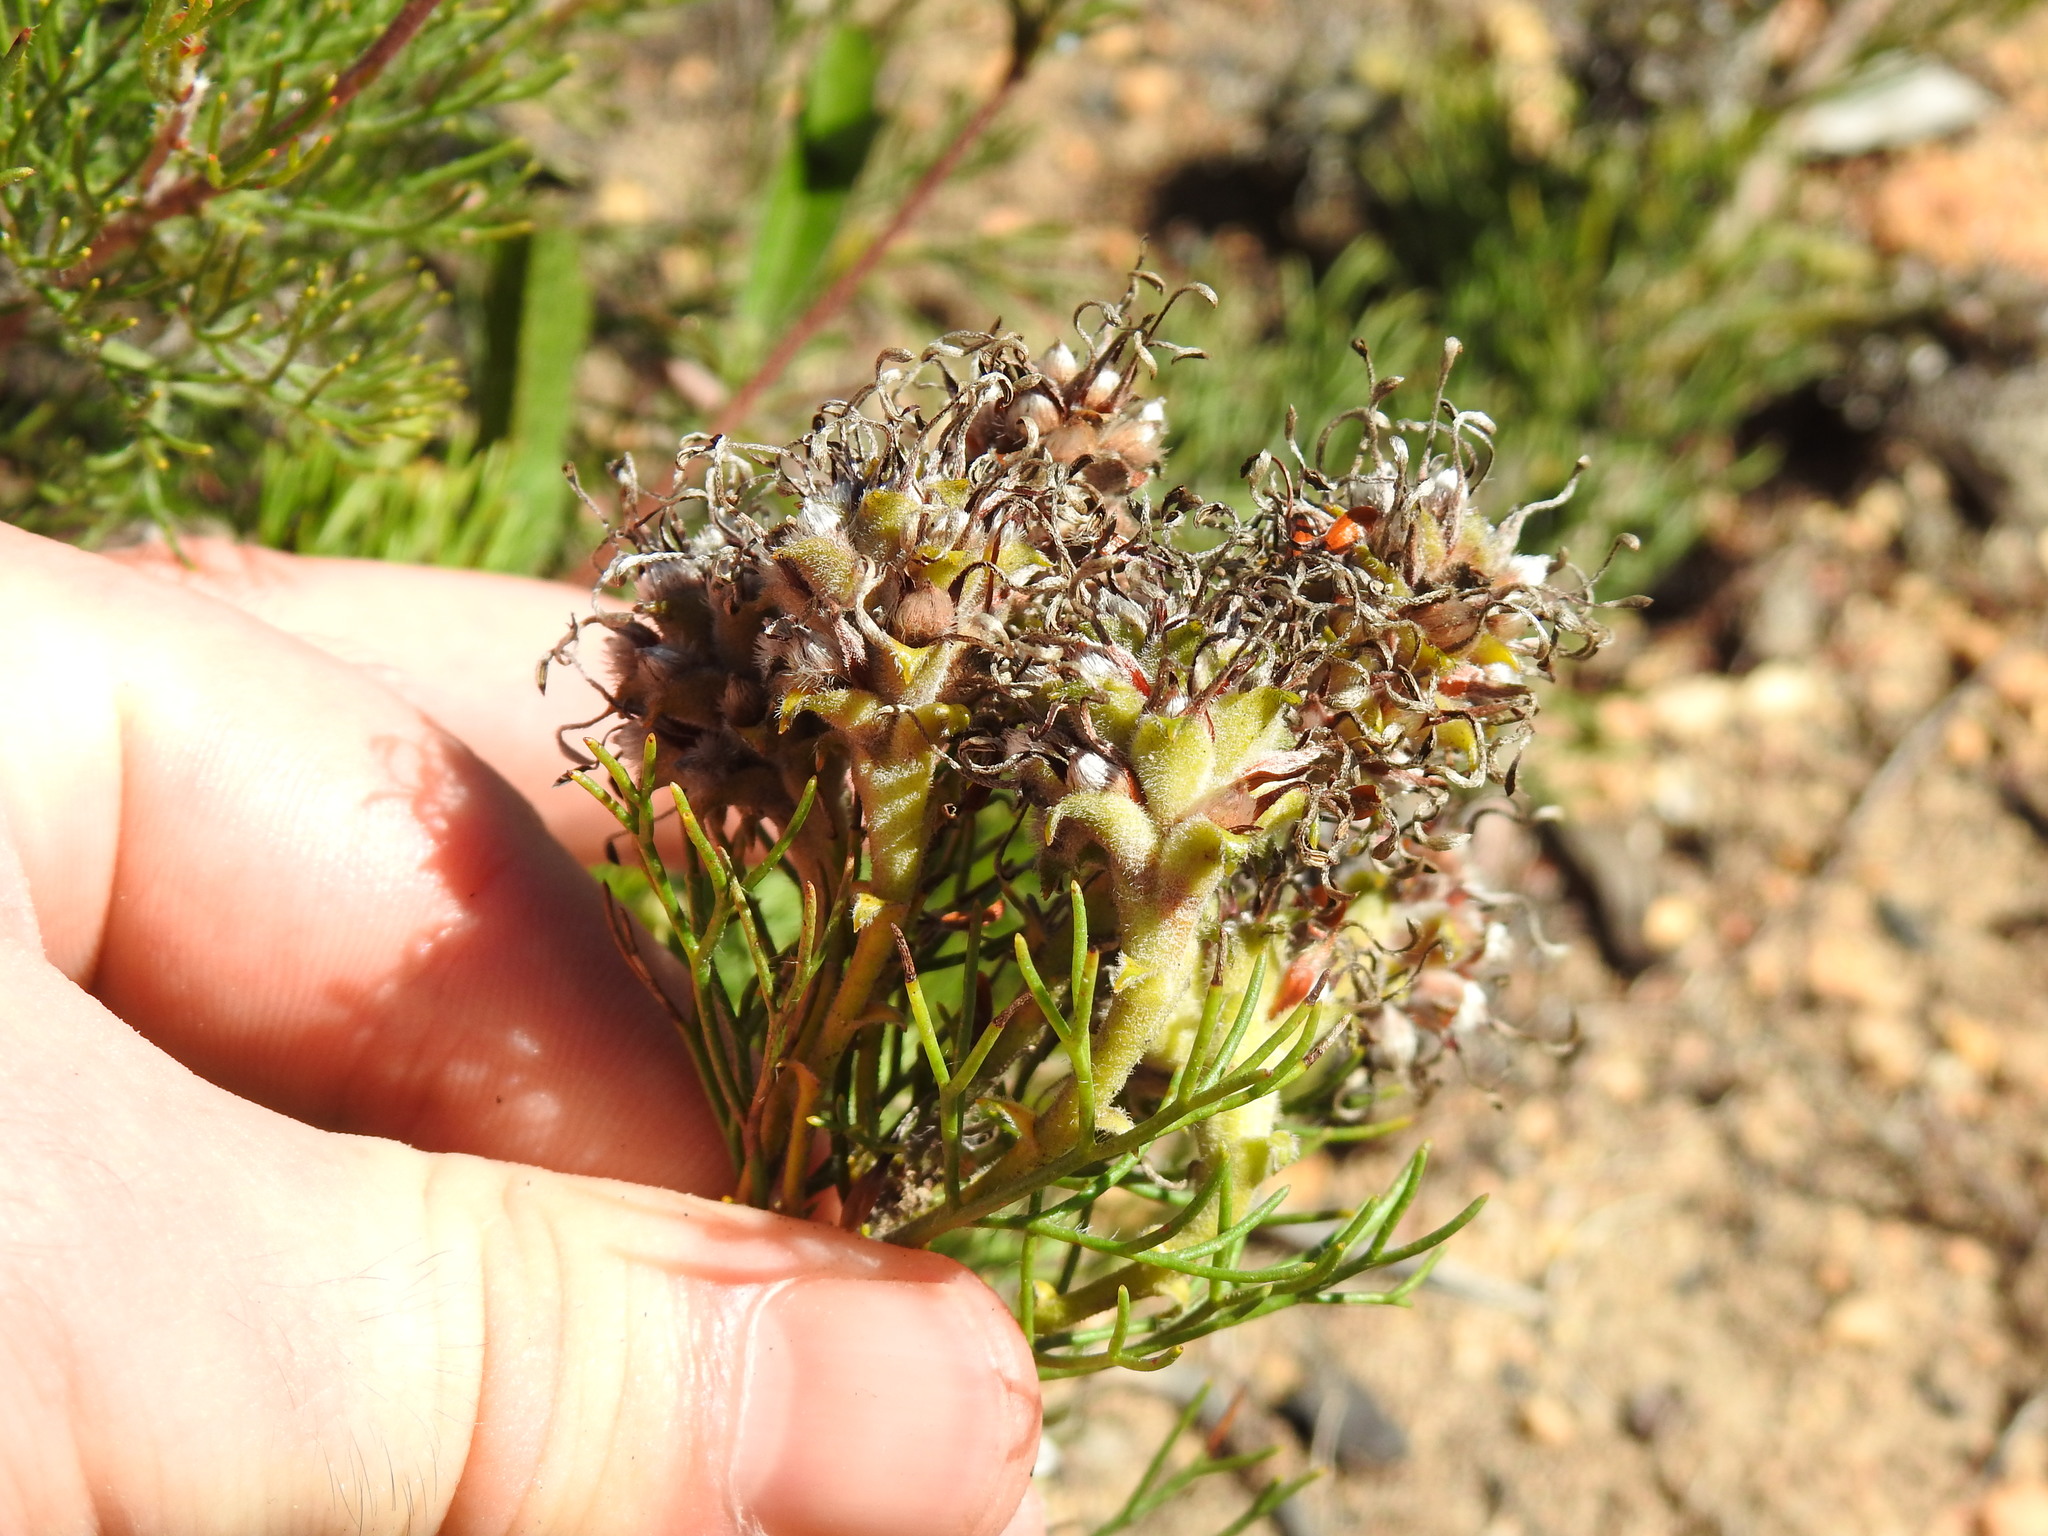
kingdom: Plantae
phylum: Tracheophyta
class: Magnoliopsida
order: Proteales
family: Proteaceae
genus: Serruria
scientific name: Serruria
